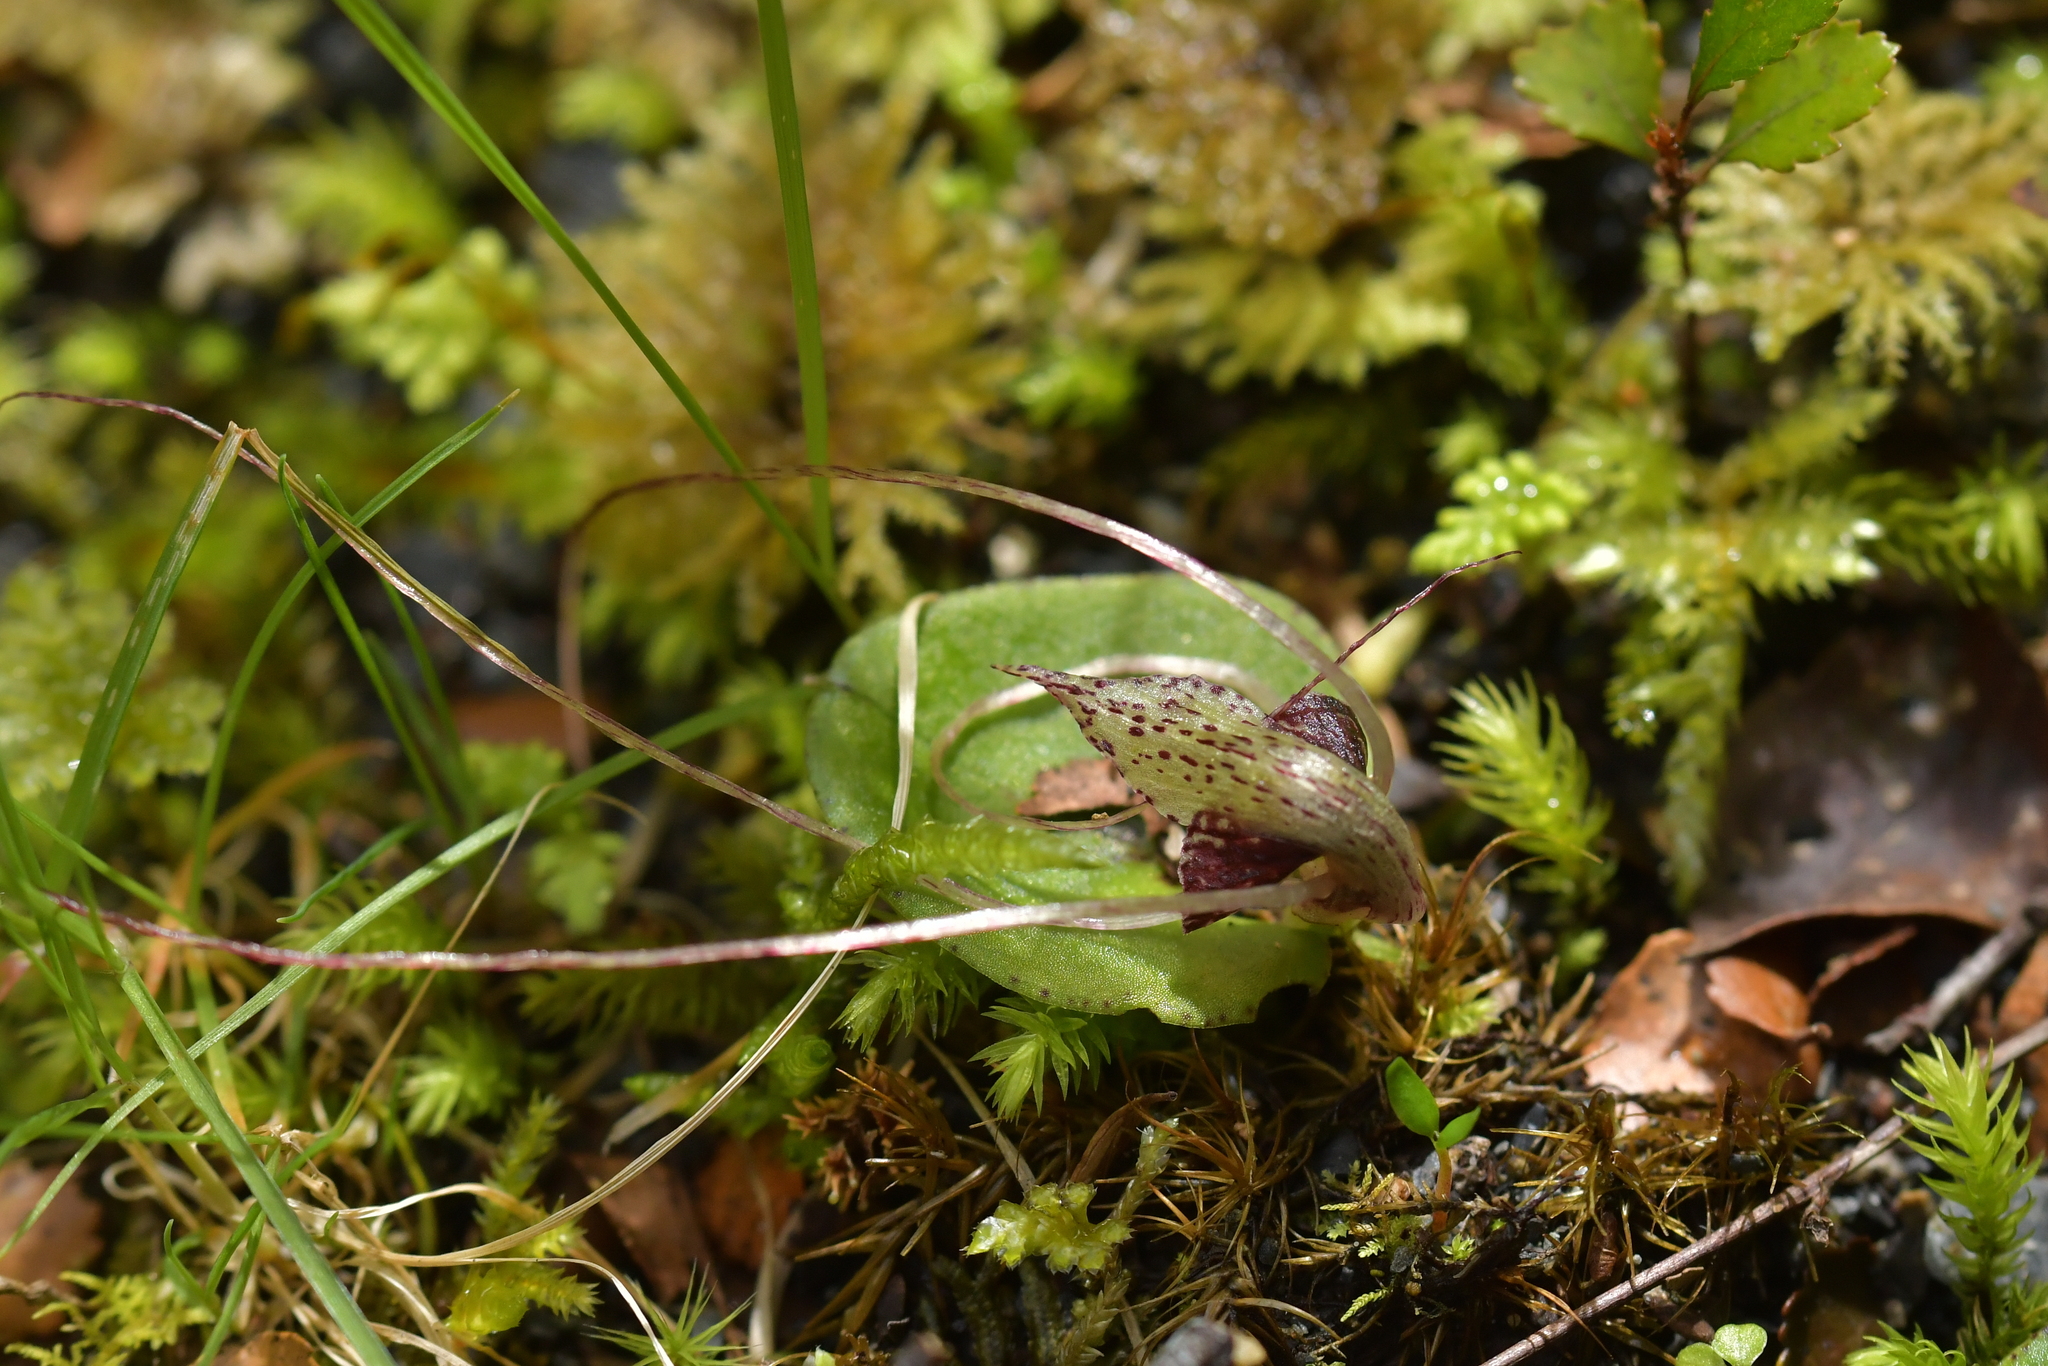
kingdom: Plantae
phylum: Tracheophyta
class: Liliopsida
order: Asparagales
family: Orchidaceae
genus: Corybas
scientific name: Corybas hatchii
